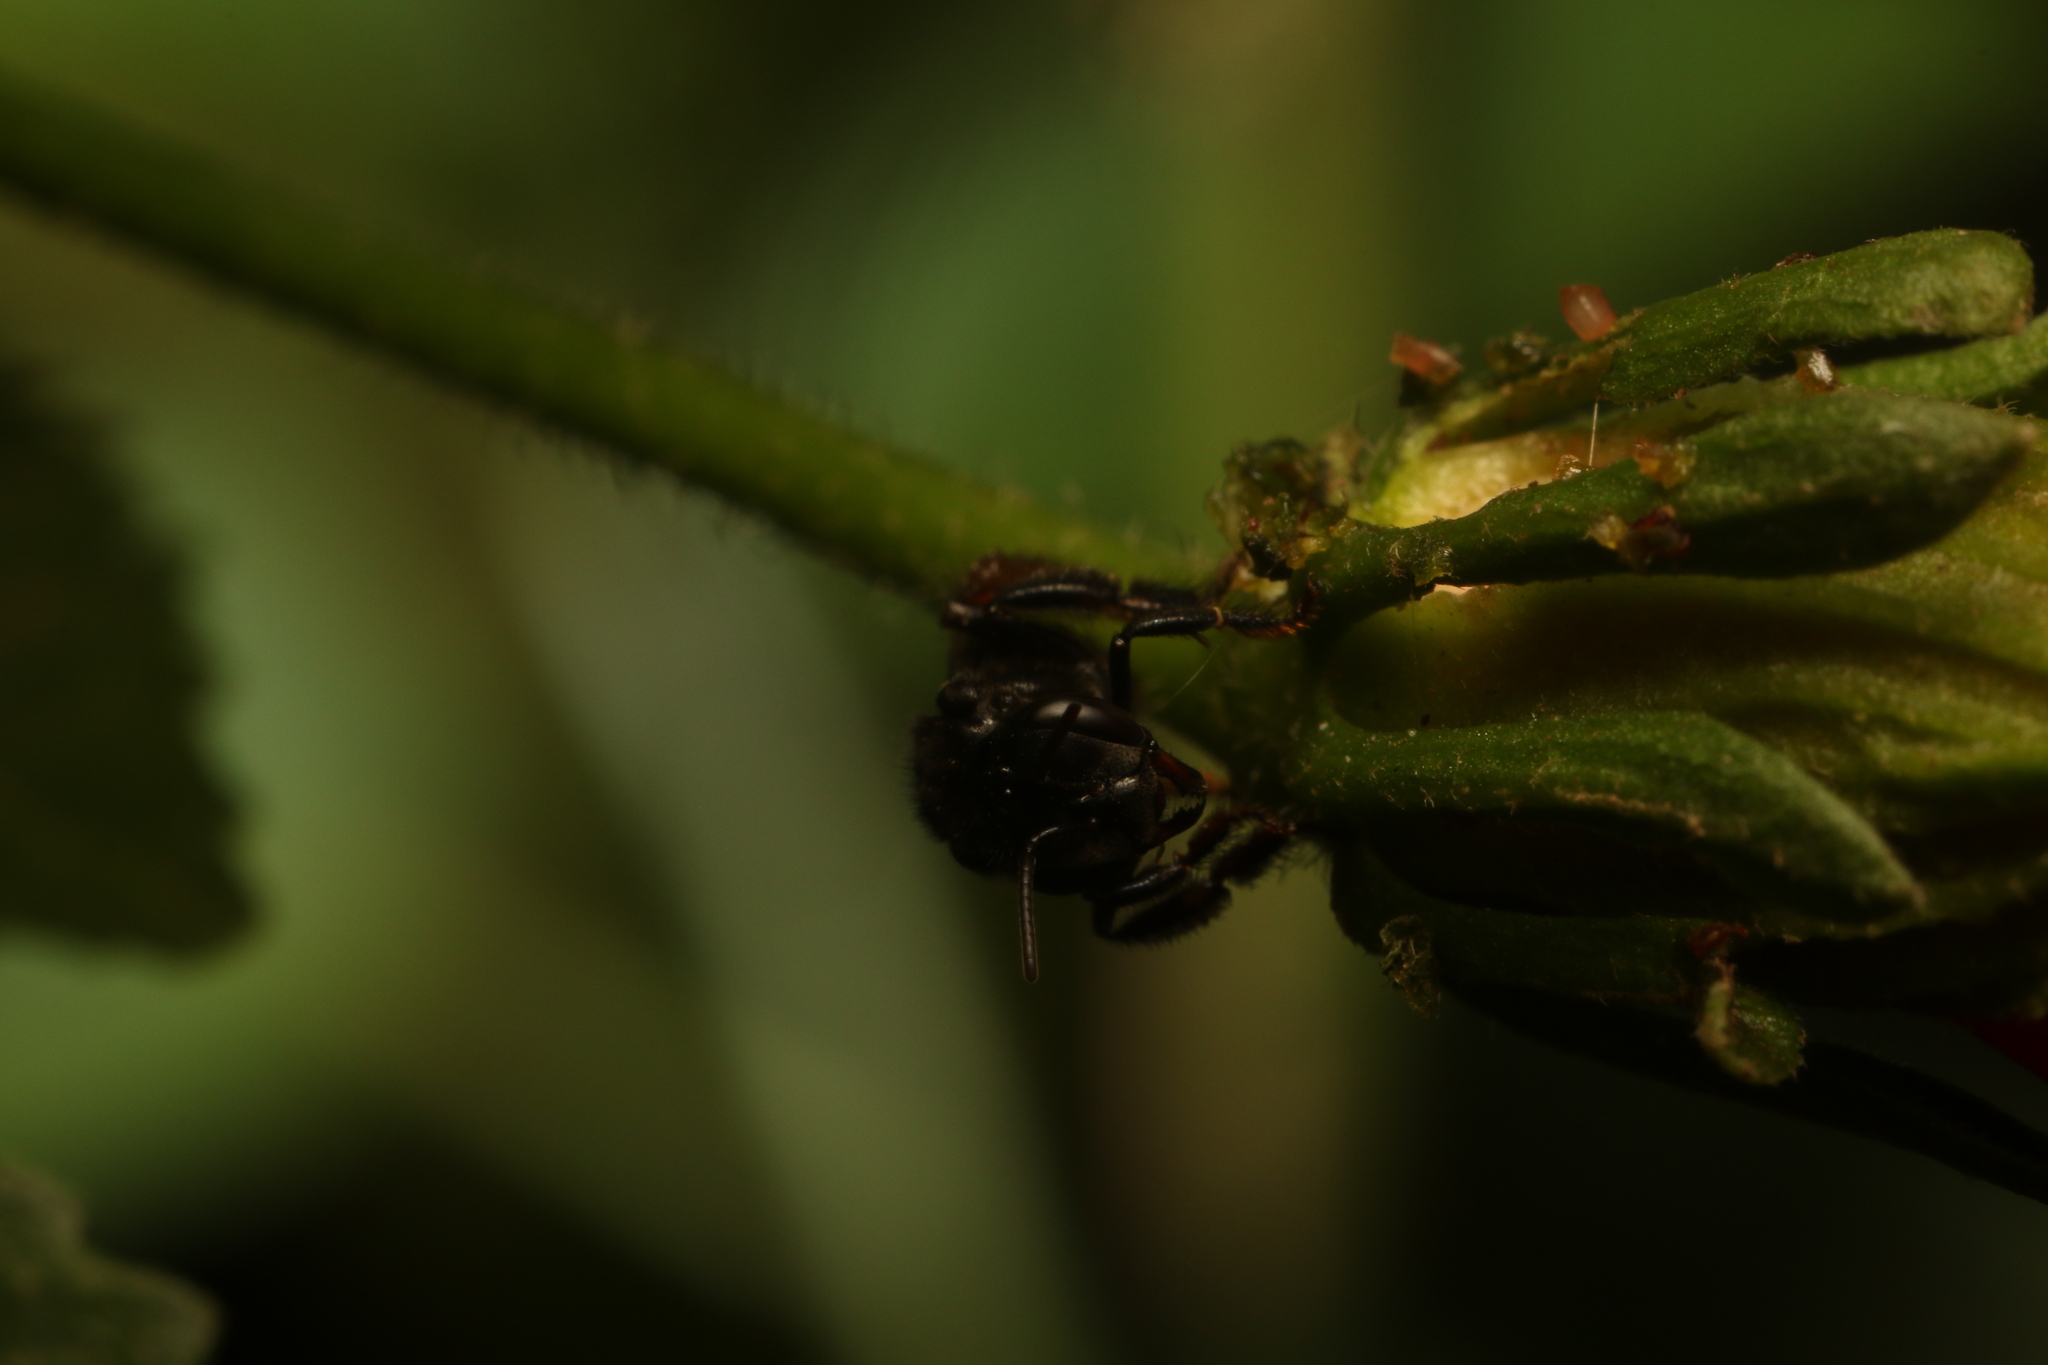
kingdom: Animalia
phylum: Arthropoda
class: Insecta
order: Hymenoptera
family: Apidae
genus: Trigona
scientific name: Trigona spinipes
